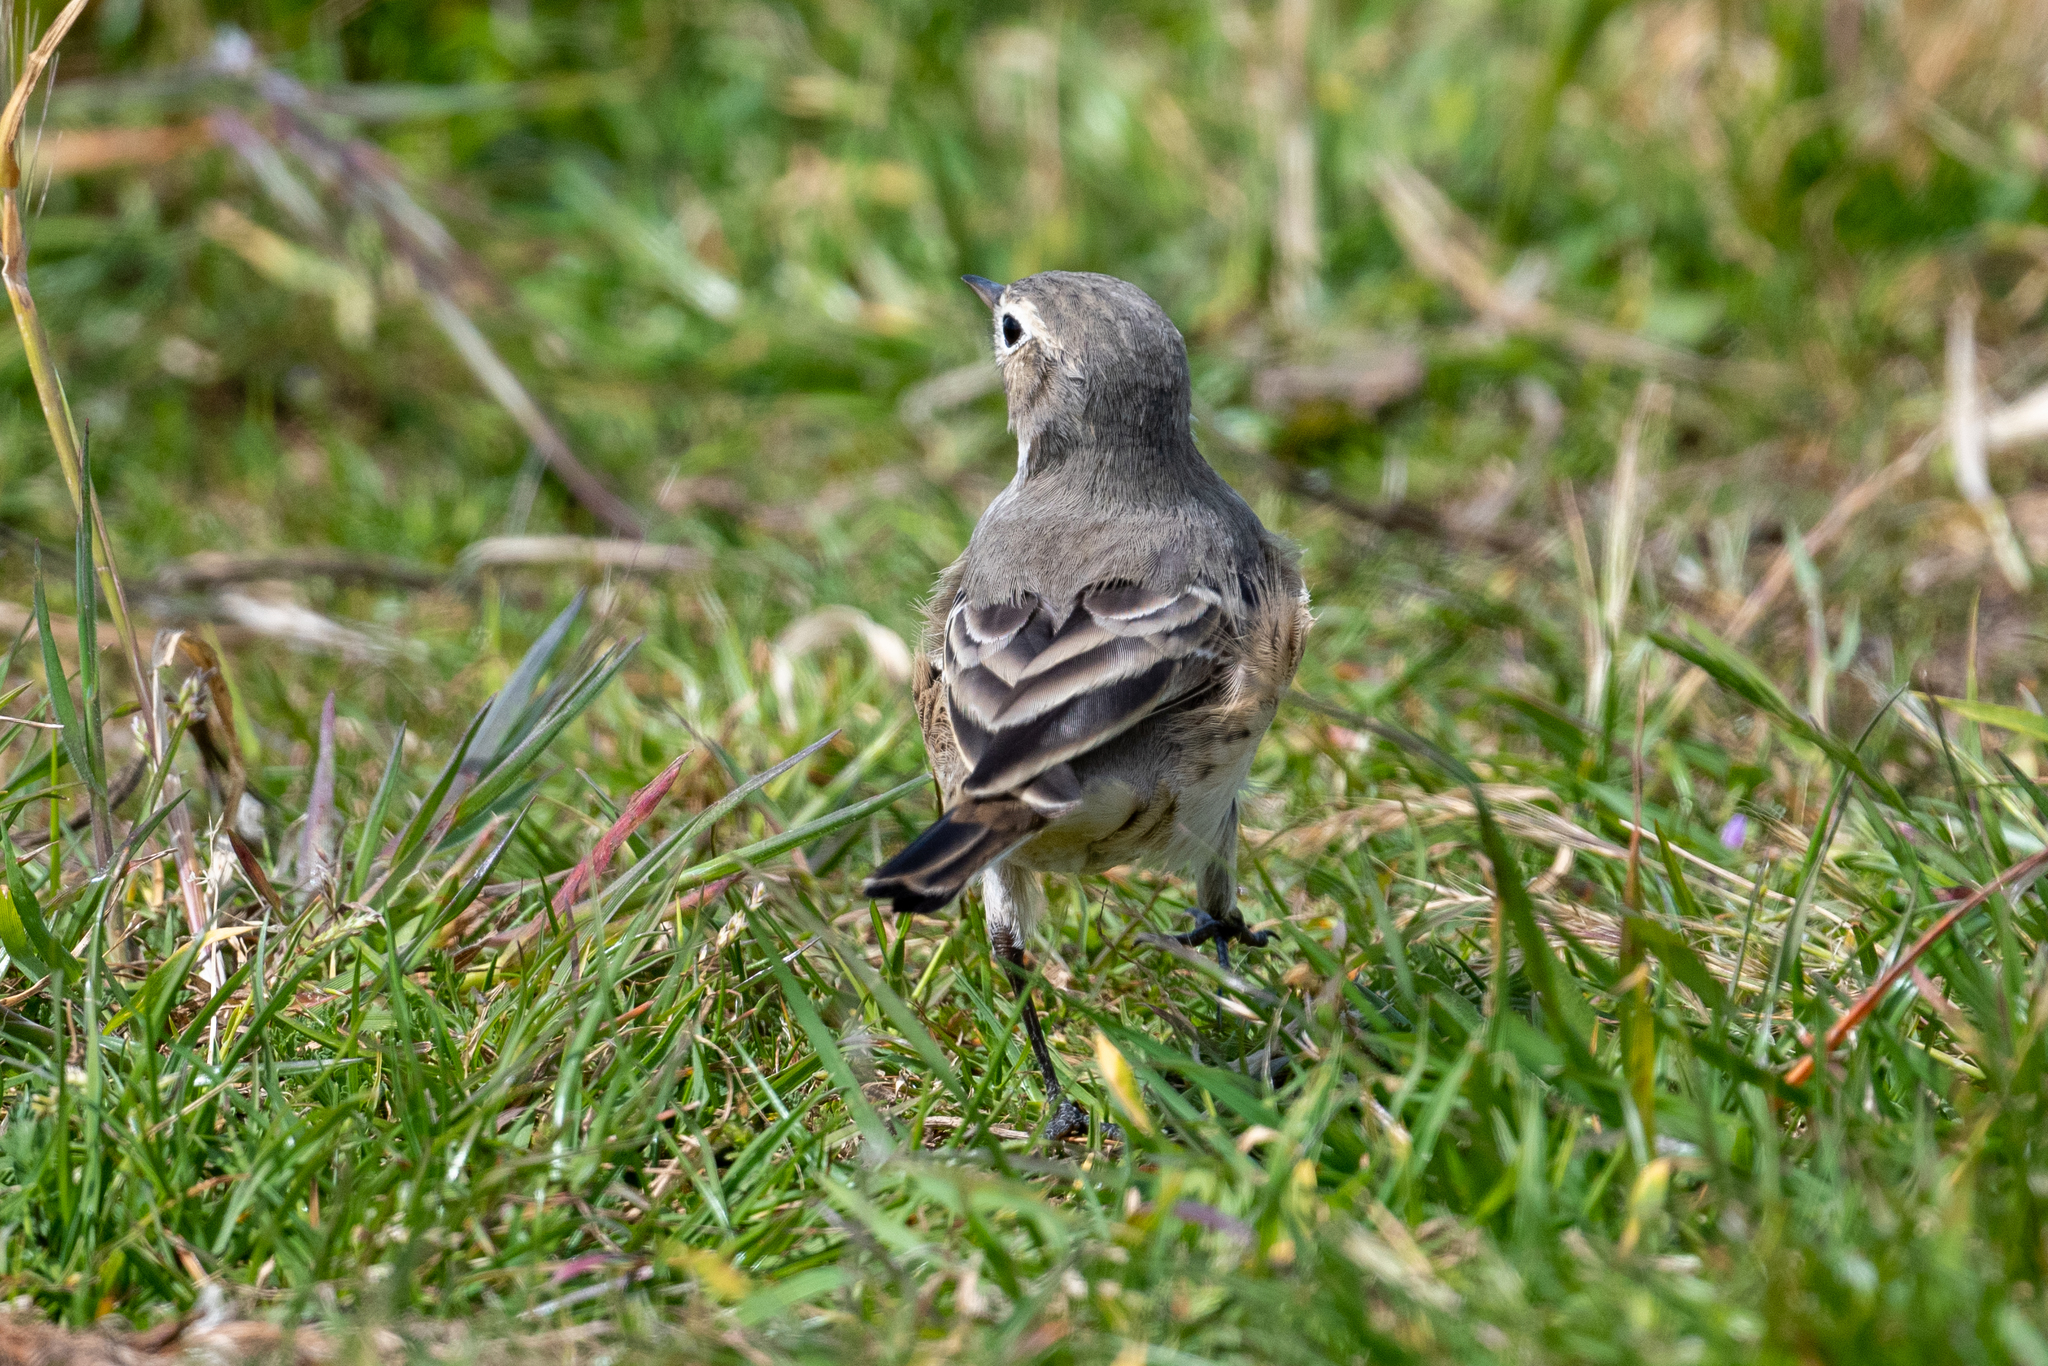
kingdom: Animalia
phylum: Chordata
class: Aves
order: Passeriformes
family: Motacillidae
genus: Anthus
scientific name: Anthus rubescens
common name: Buff-bellied pipit
